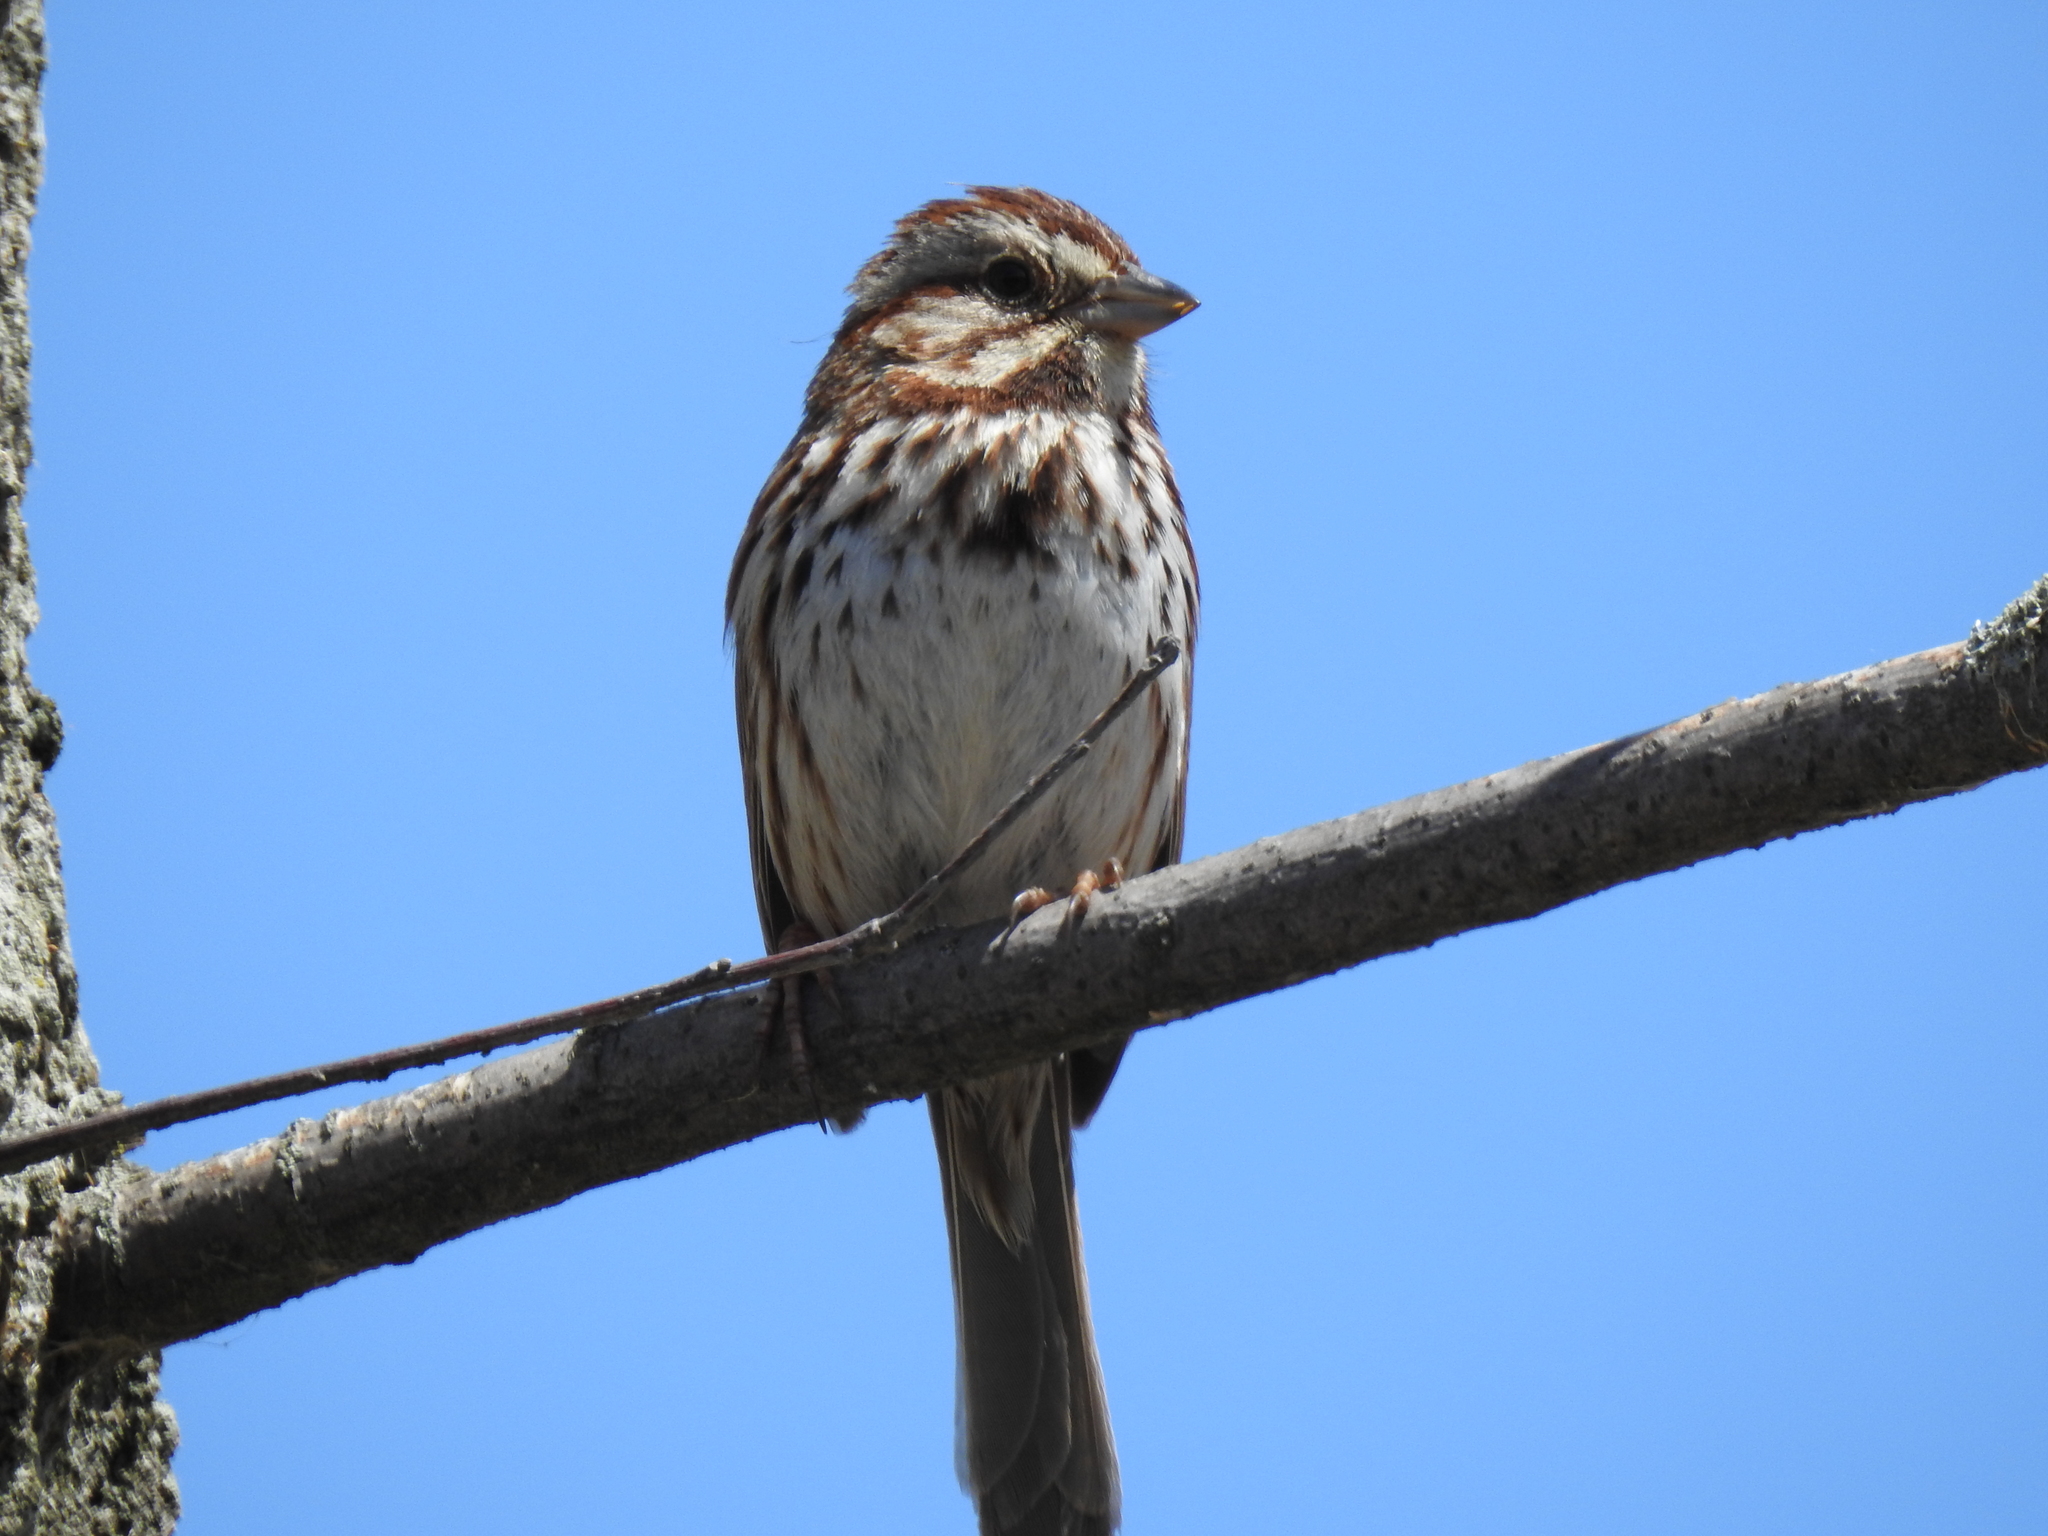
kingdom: Animalia
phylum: Chordata
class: Aves
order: Passeriformes
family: Passerellidae
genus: Melospiza
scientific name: Melospiza melodia
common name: Song sparrow
